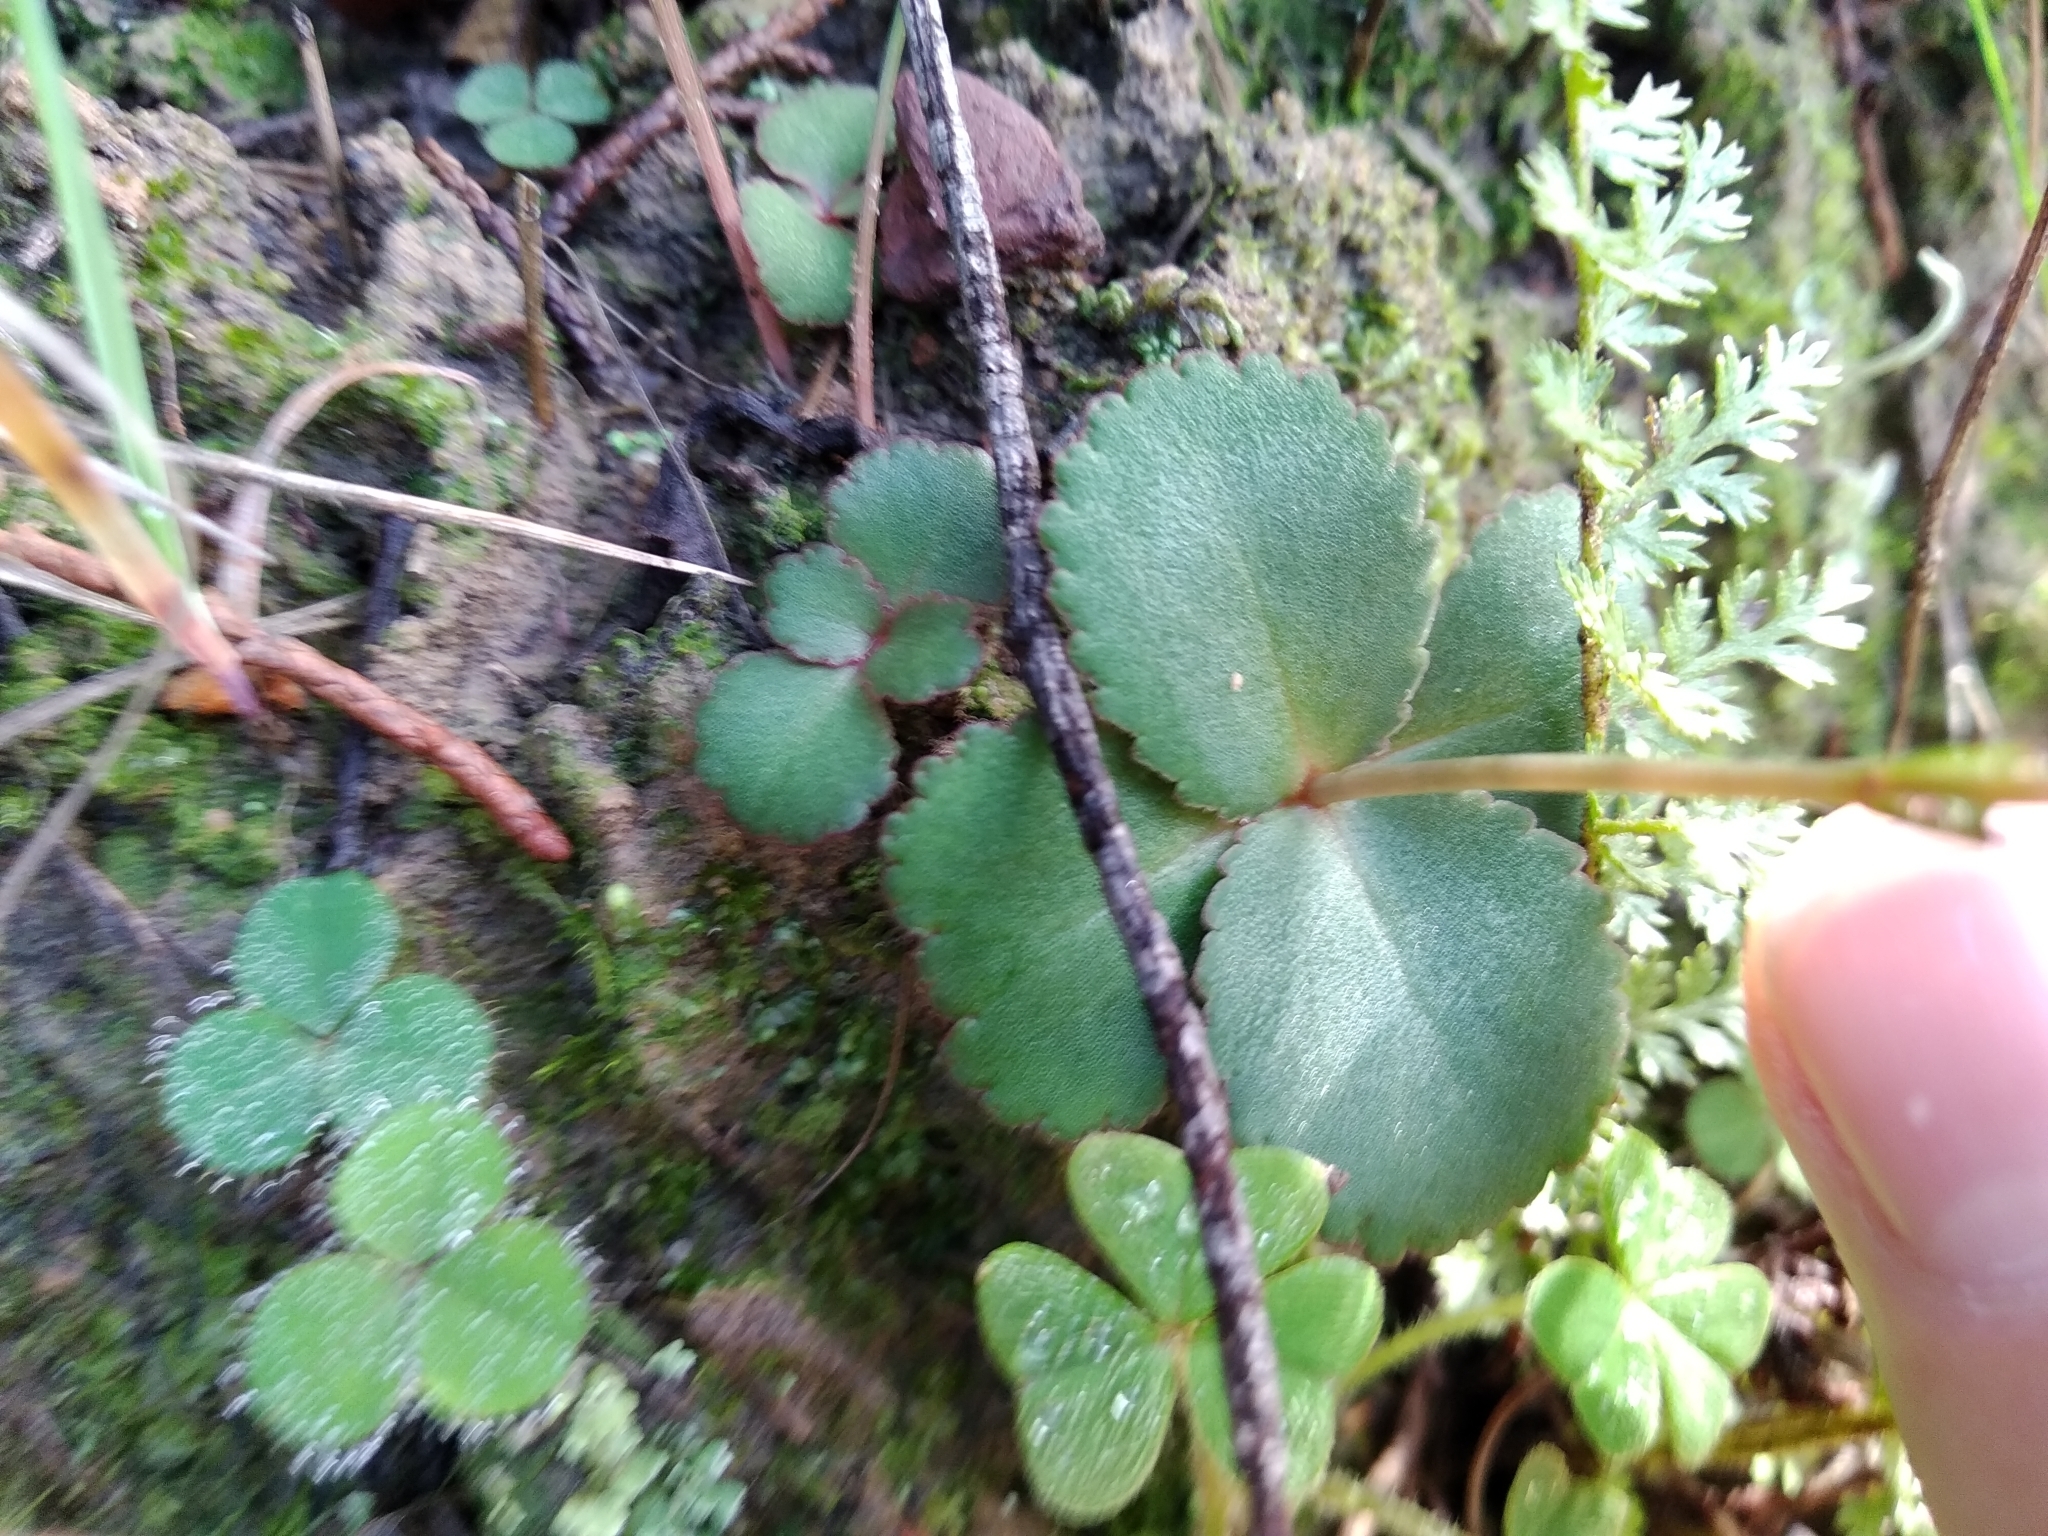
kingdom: Plantae
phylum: Tracheophyta
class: Magnoliopsida
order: Saxifragales
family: Crassulaceae
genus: Crassula
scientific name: Crassula capensis
